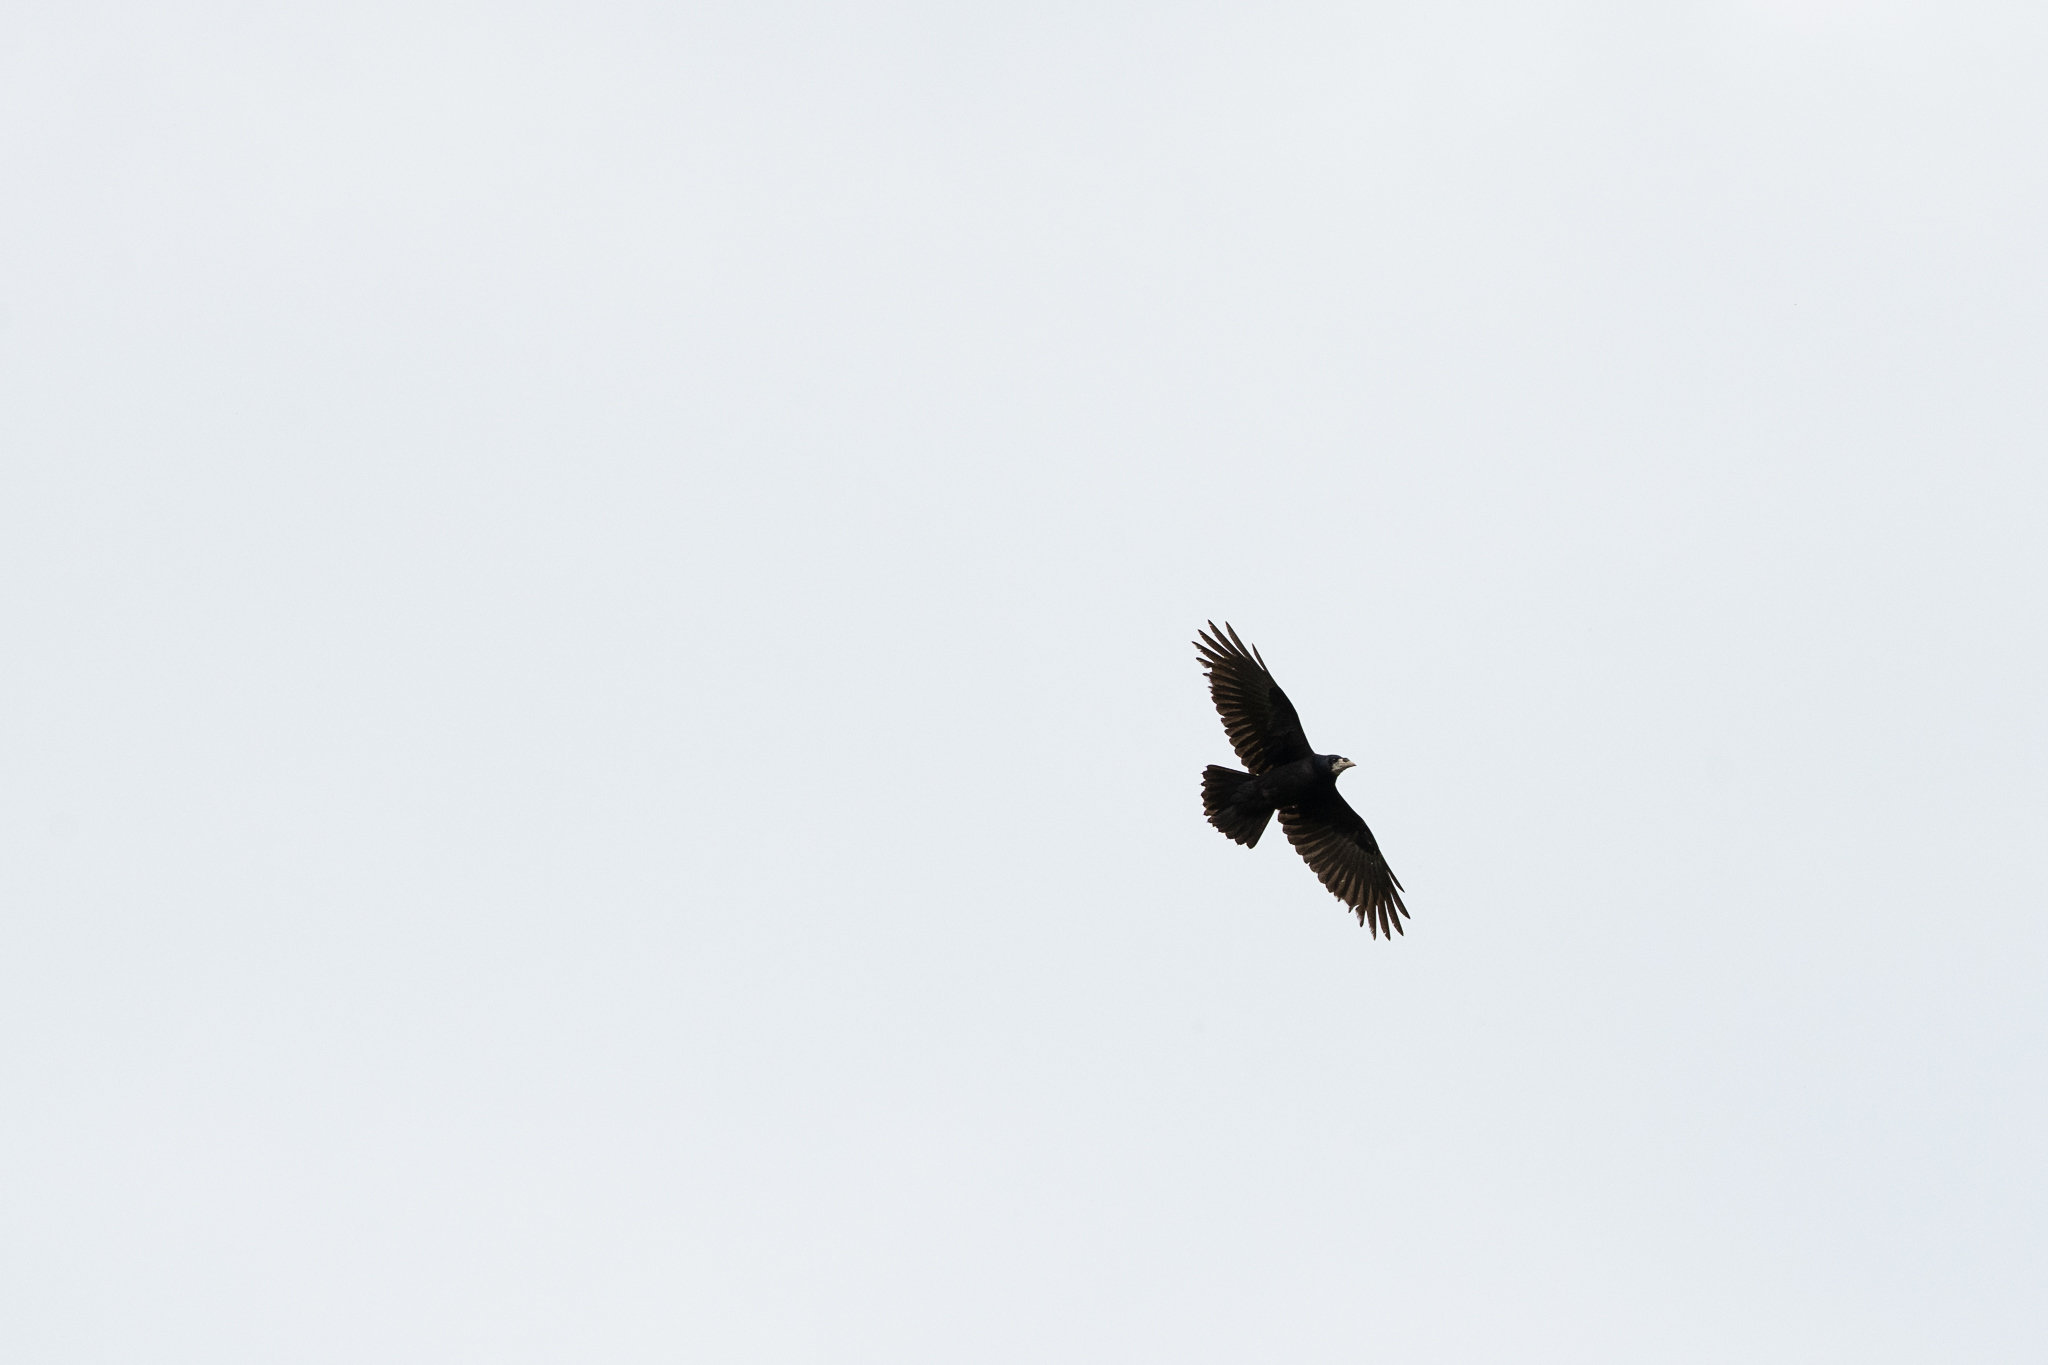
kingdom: Animalia
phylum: Chordata
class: Aves
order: Passeriformes
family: Corvidae
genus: Corvus
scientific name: Corvus frugilegus
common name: Rook
